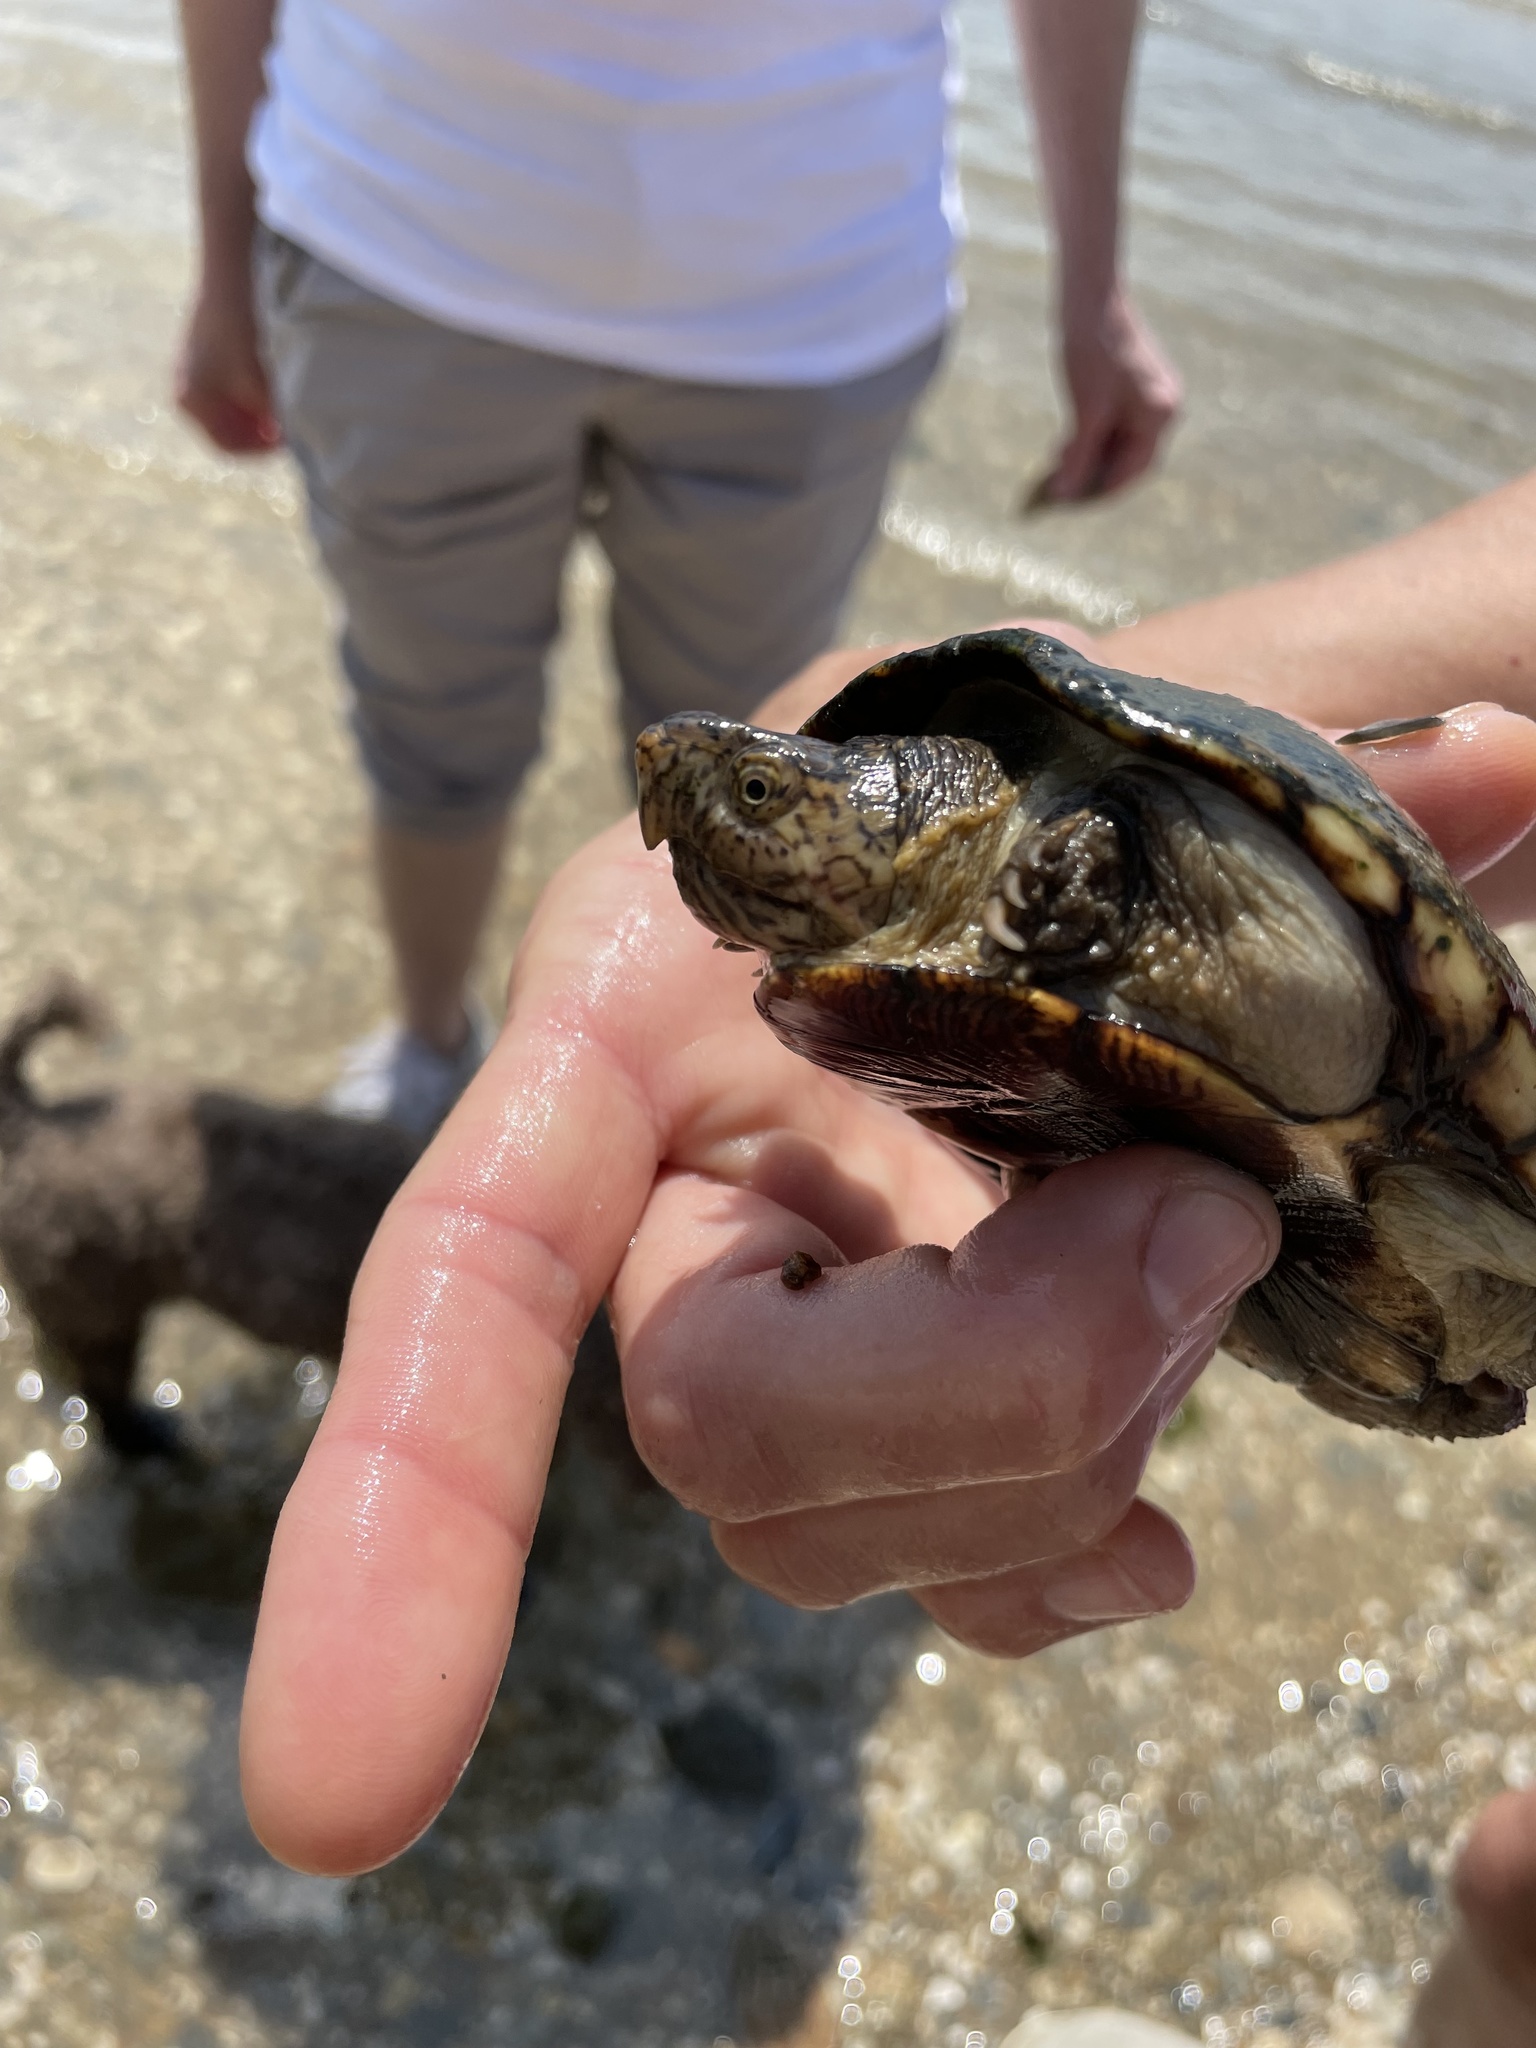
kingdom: Animalia
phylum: Chordata
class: Testudines
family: Kinosternidae
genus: Kinosternon
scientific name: Kinosternon subrubrum
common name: Eastern mud turtle
